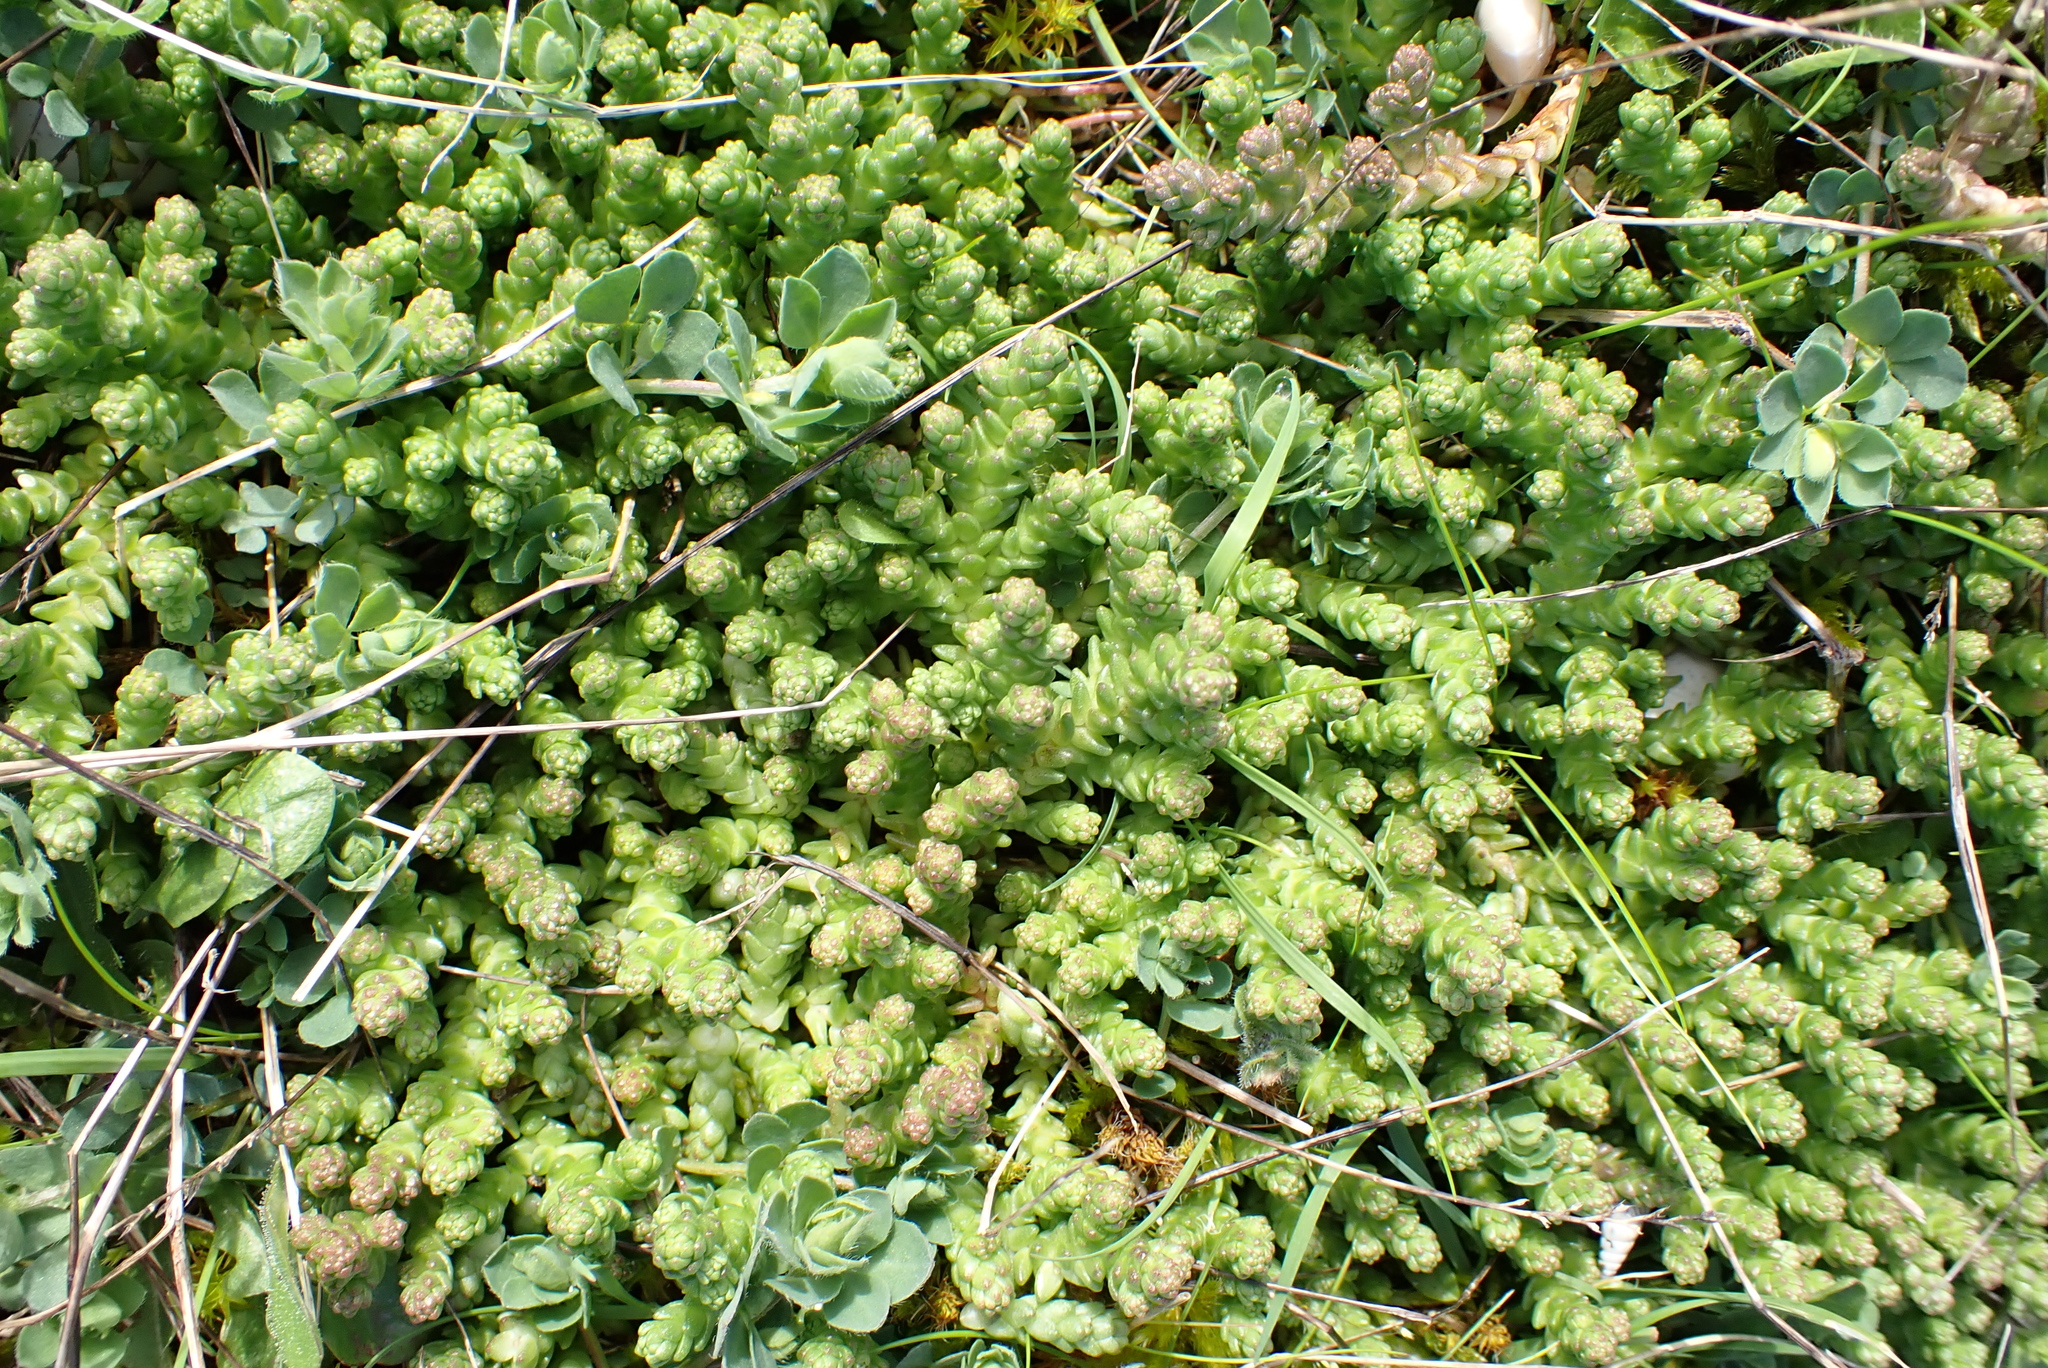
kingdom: Plantae
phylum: Tracheophyta
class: Magnoliopsida
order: Saxifragales
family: Crassulaceae
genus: Sedum
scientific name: Sedum acre
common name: Biting stonecrop
